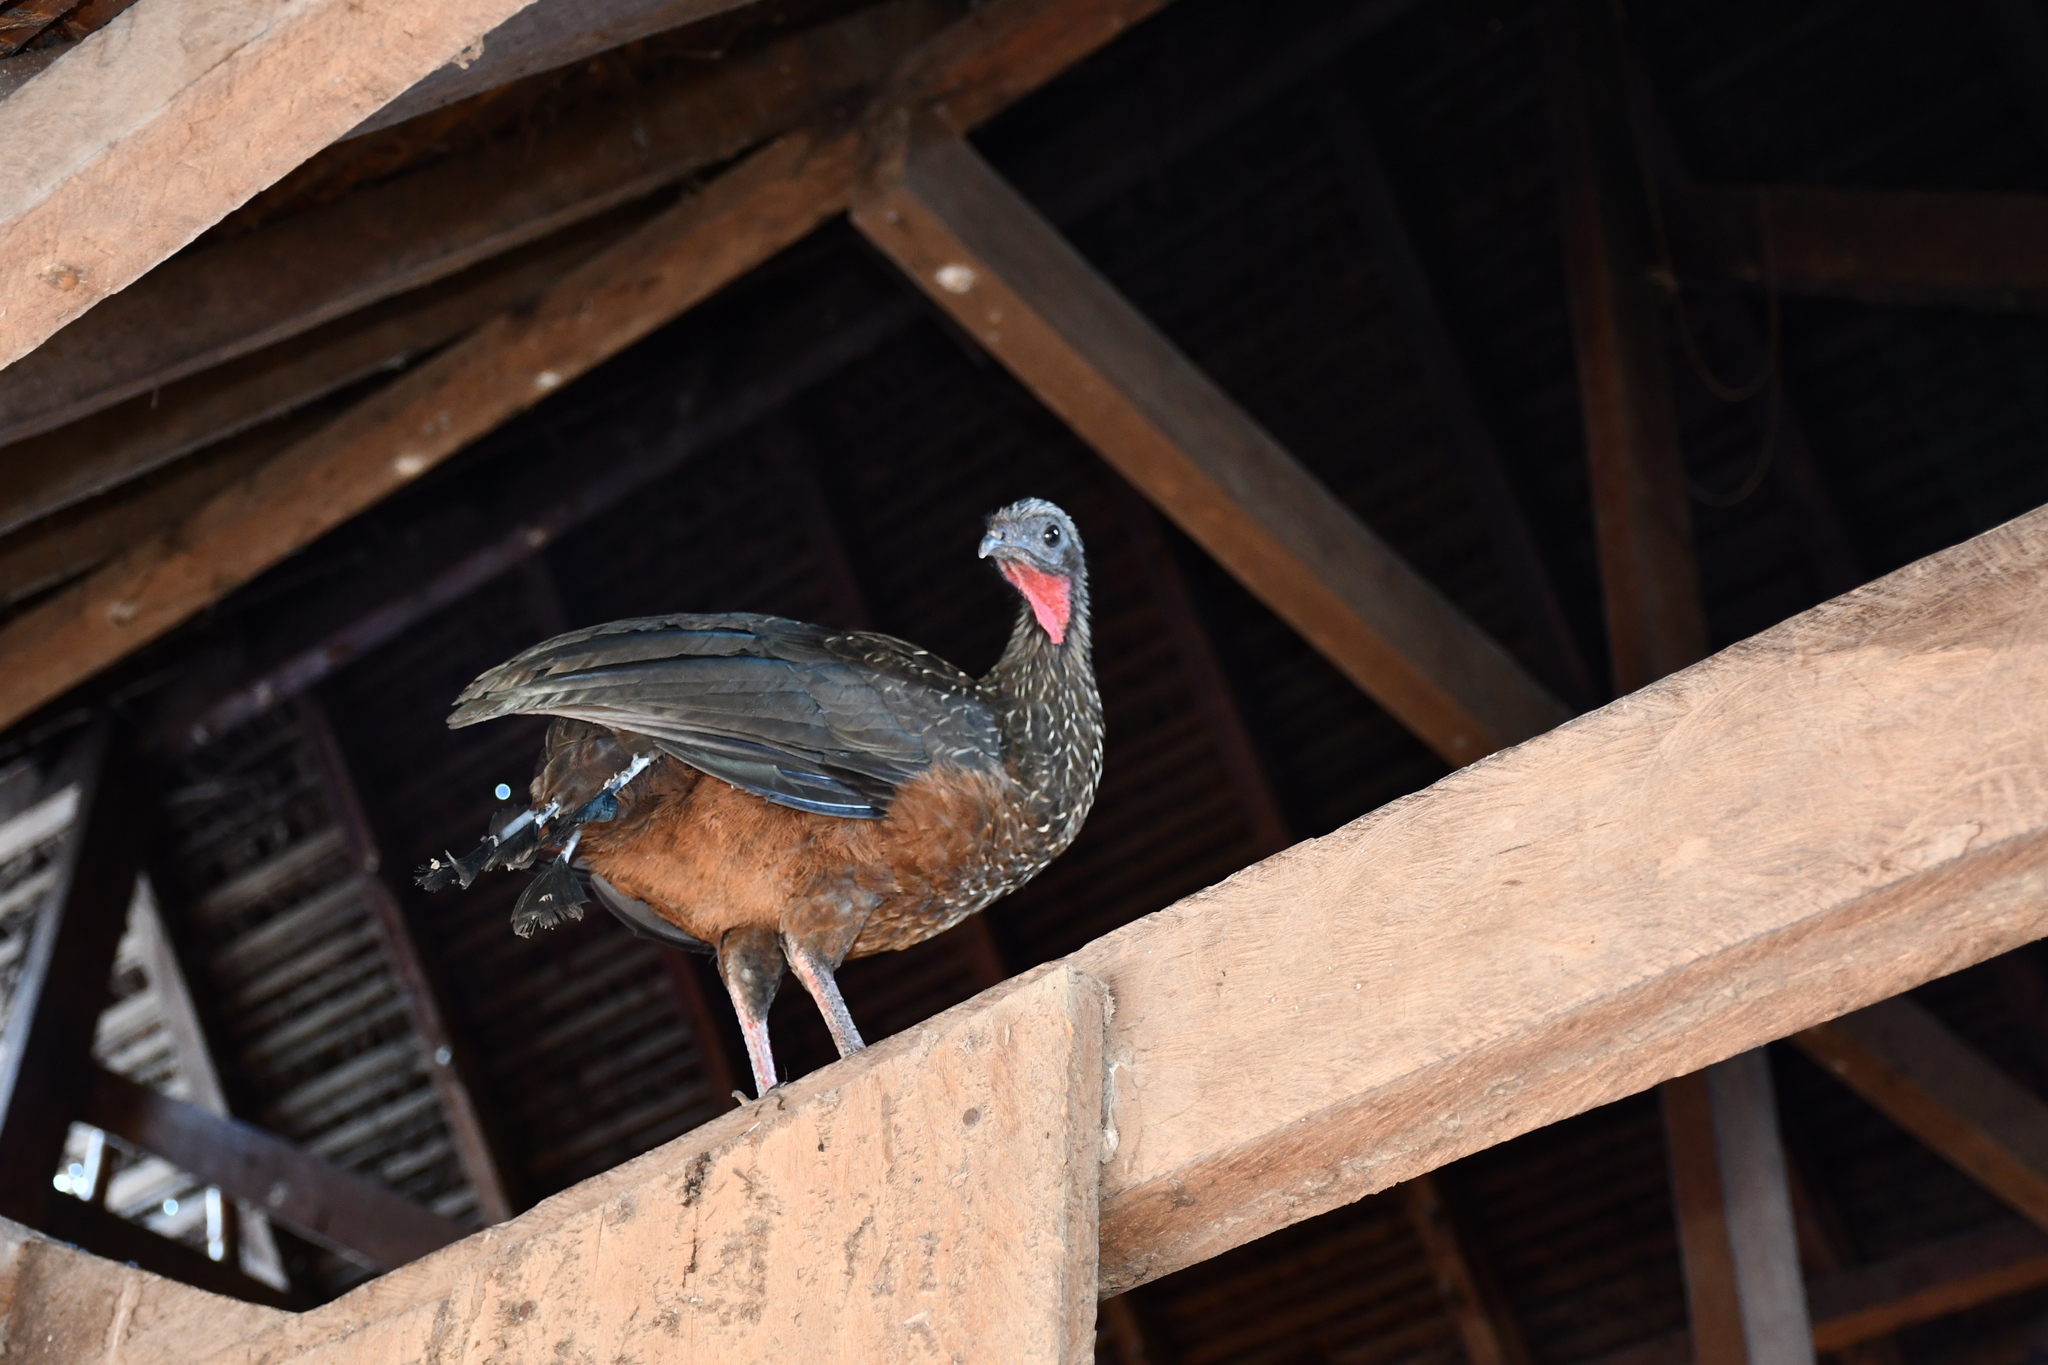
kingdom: Animalia
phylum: Chordata
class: Aves
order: Galliformes
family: Cracidae
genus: Penelope
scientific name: Penelope jacquacu
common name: Spix's guan
